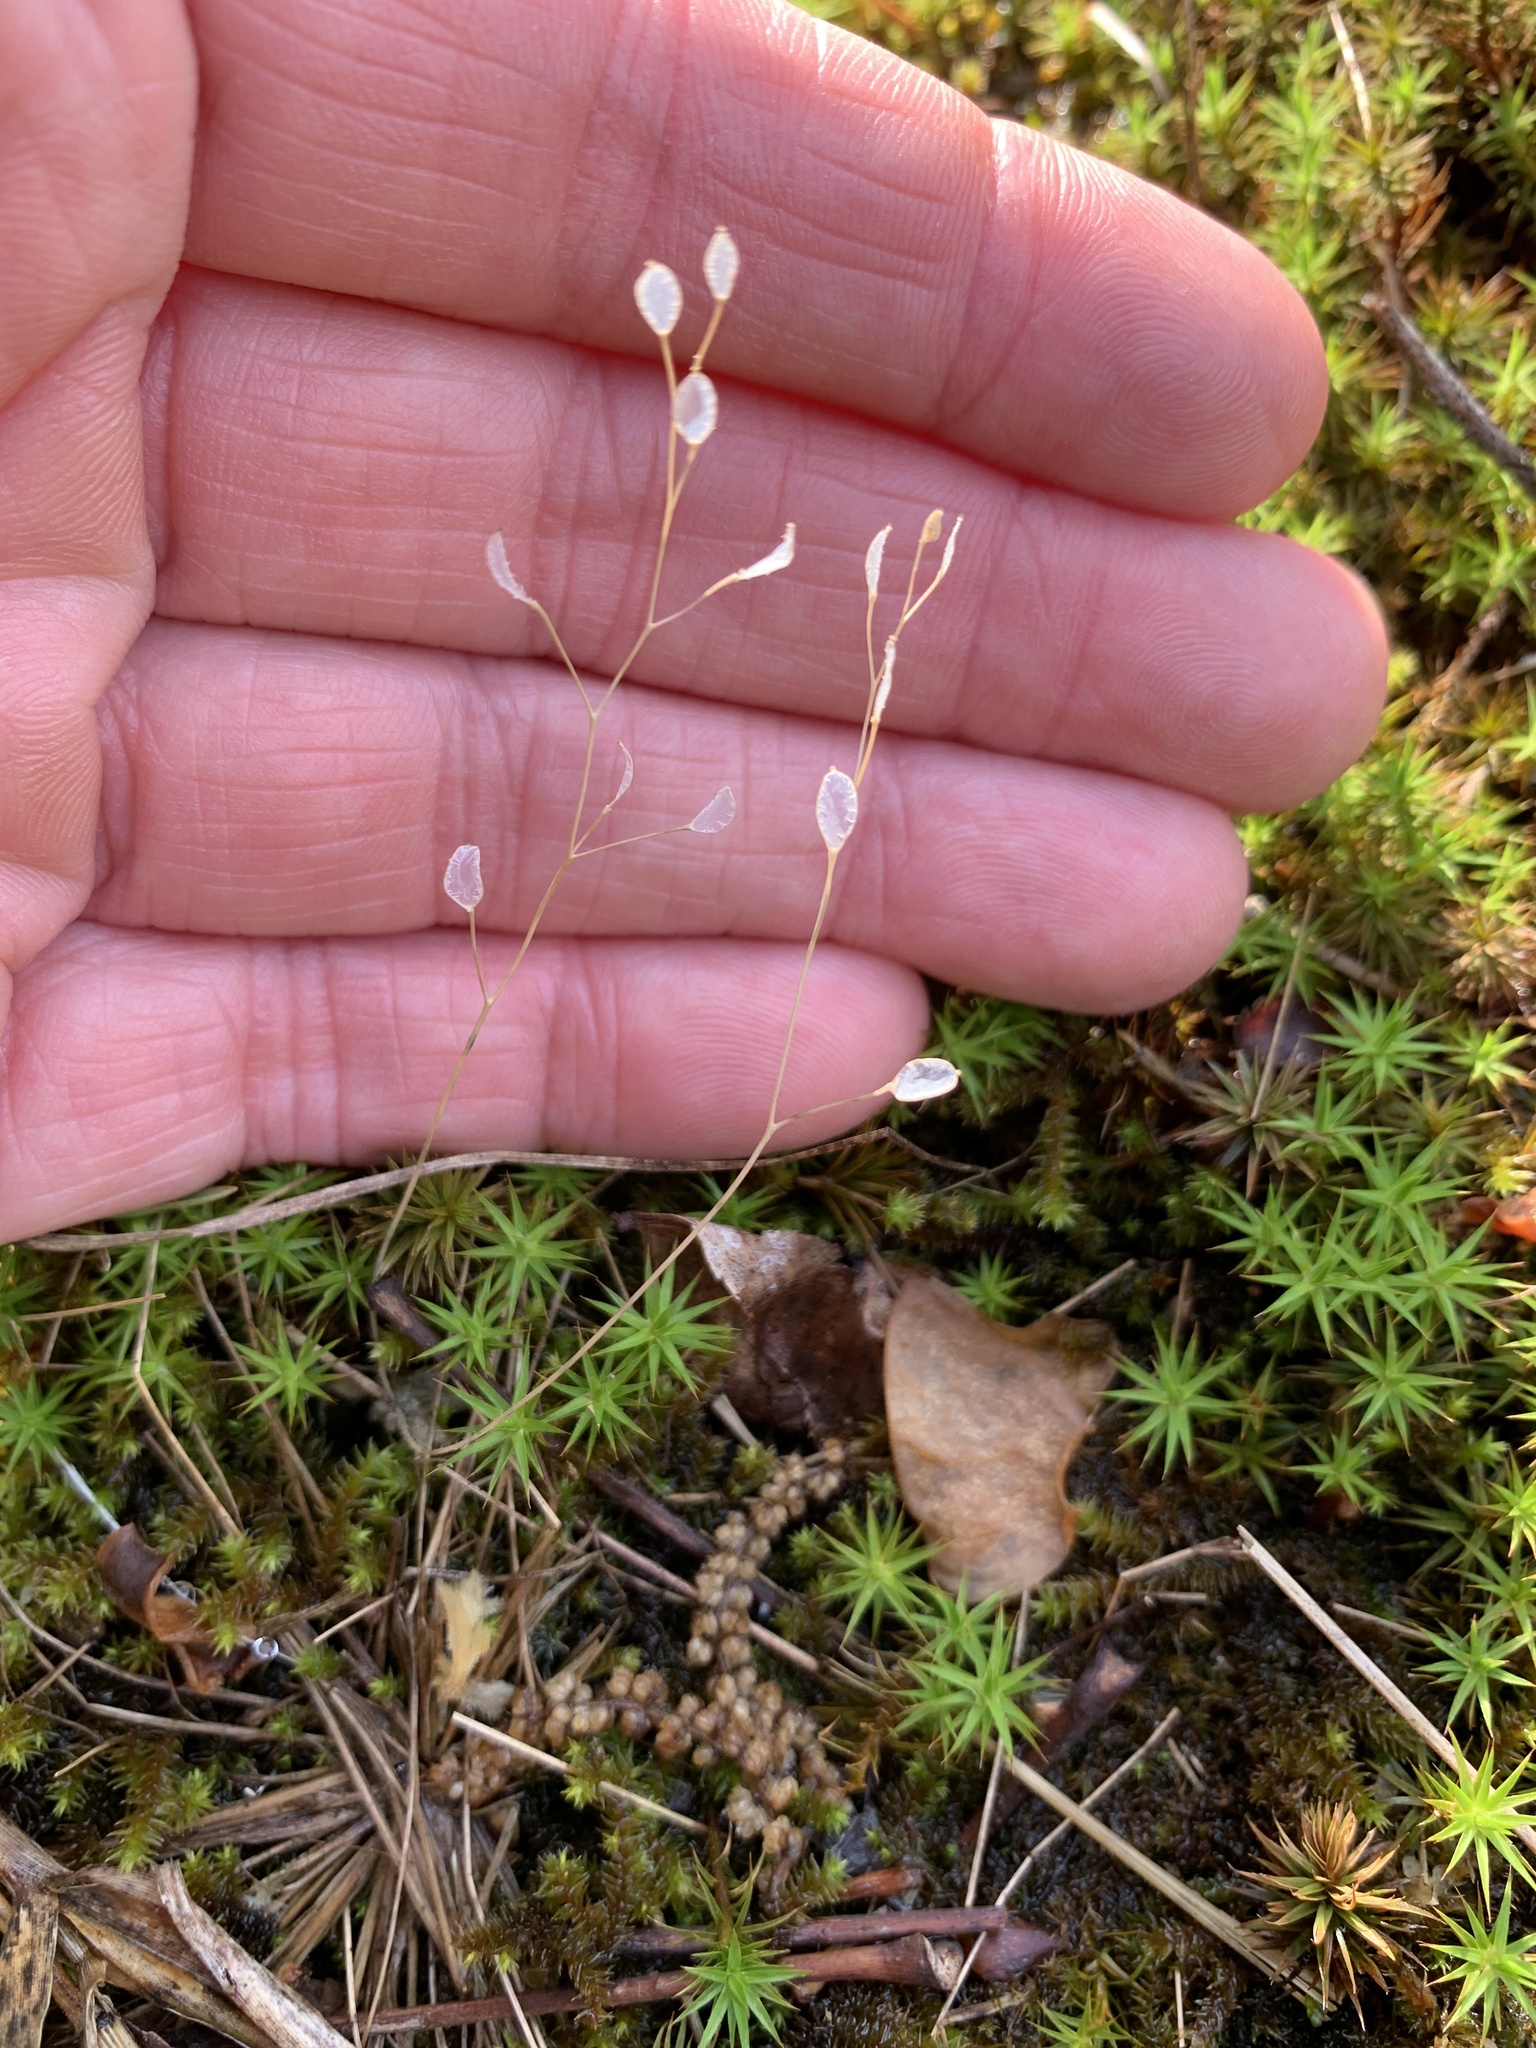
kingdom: Plantae
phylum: Tracheophyta
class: Magnoliopsida
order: Brassicales
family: Brassicaceae
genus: Draba
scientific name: Draba verna
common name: Spring draba
